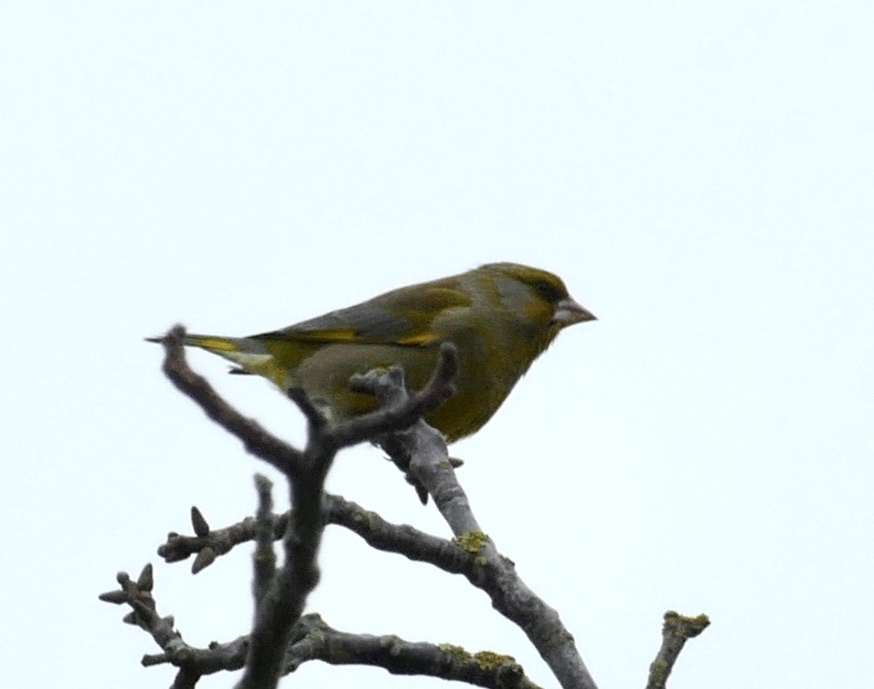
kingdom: Plantae
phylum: Tracheophyta
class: Liliopsida
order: Poales
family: Poaceae
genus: Chloris
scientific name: Chloris chloris
